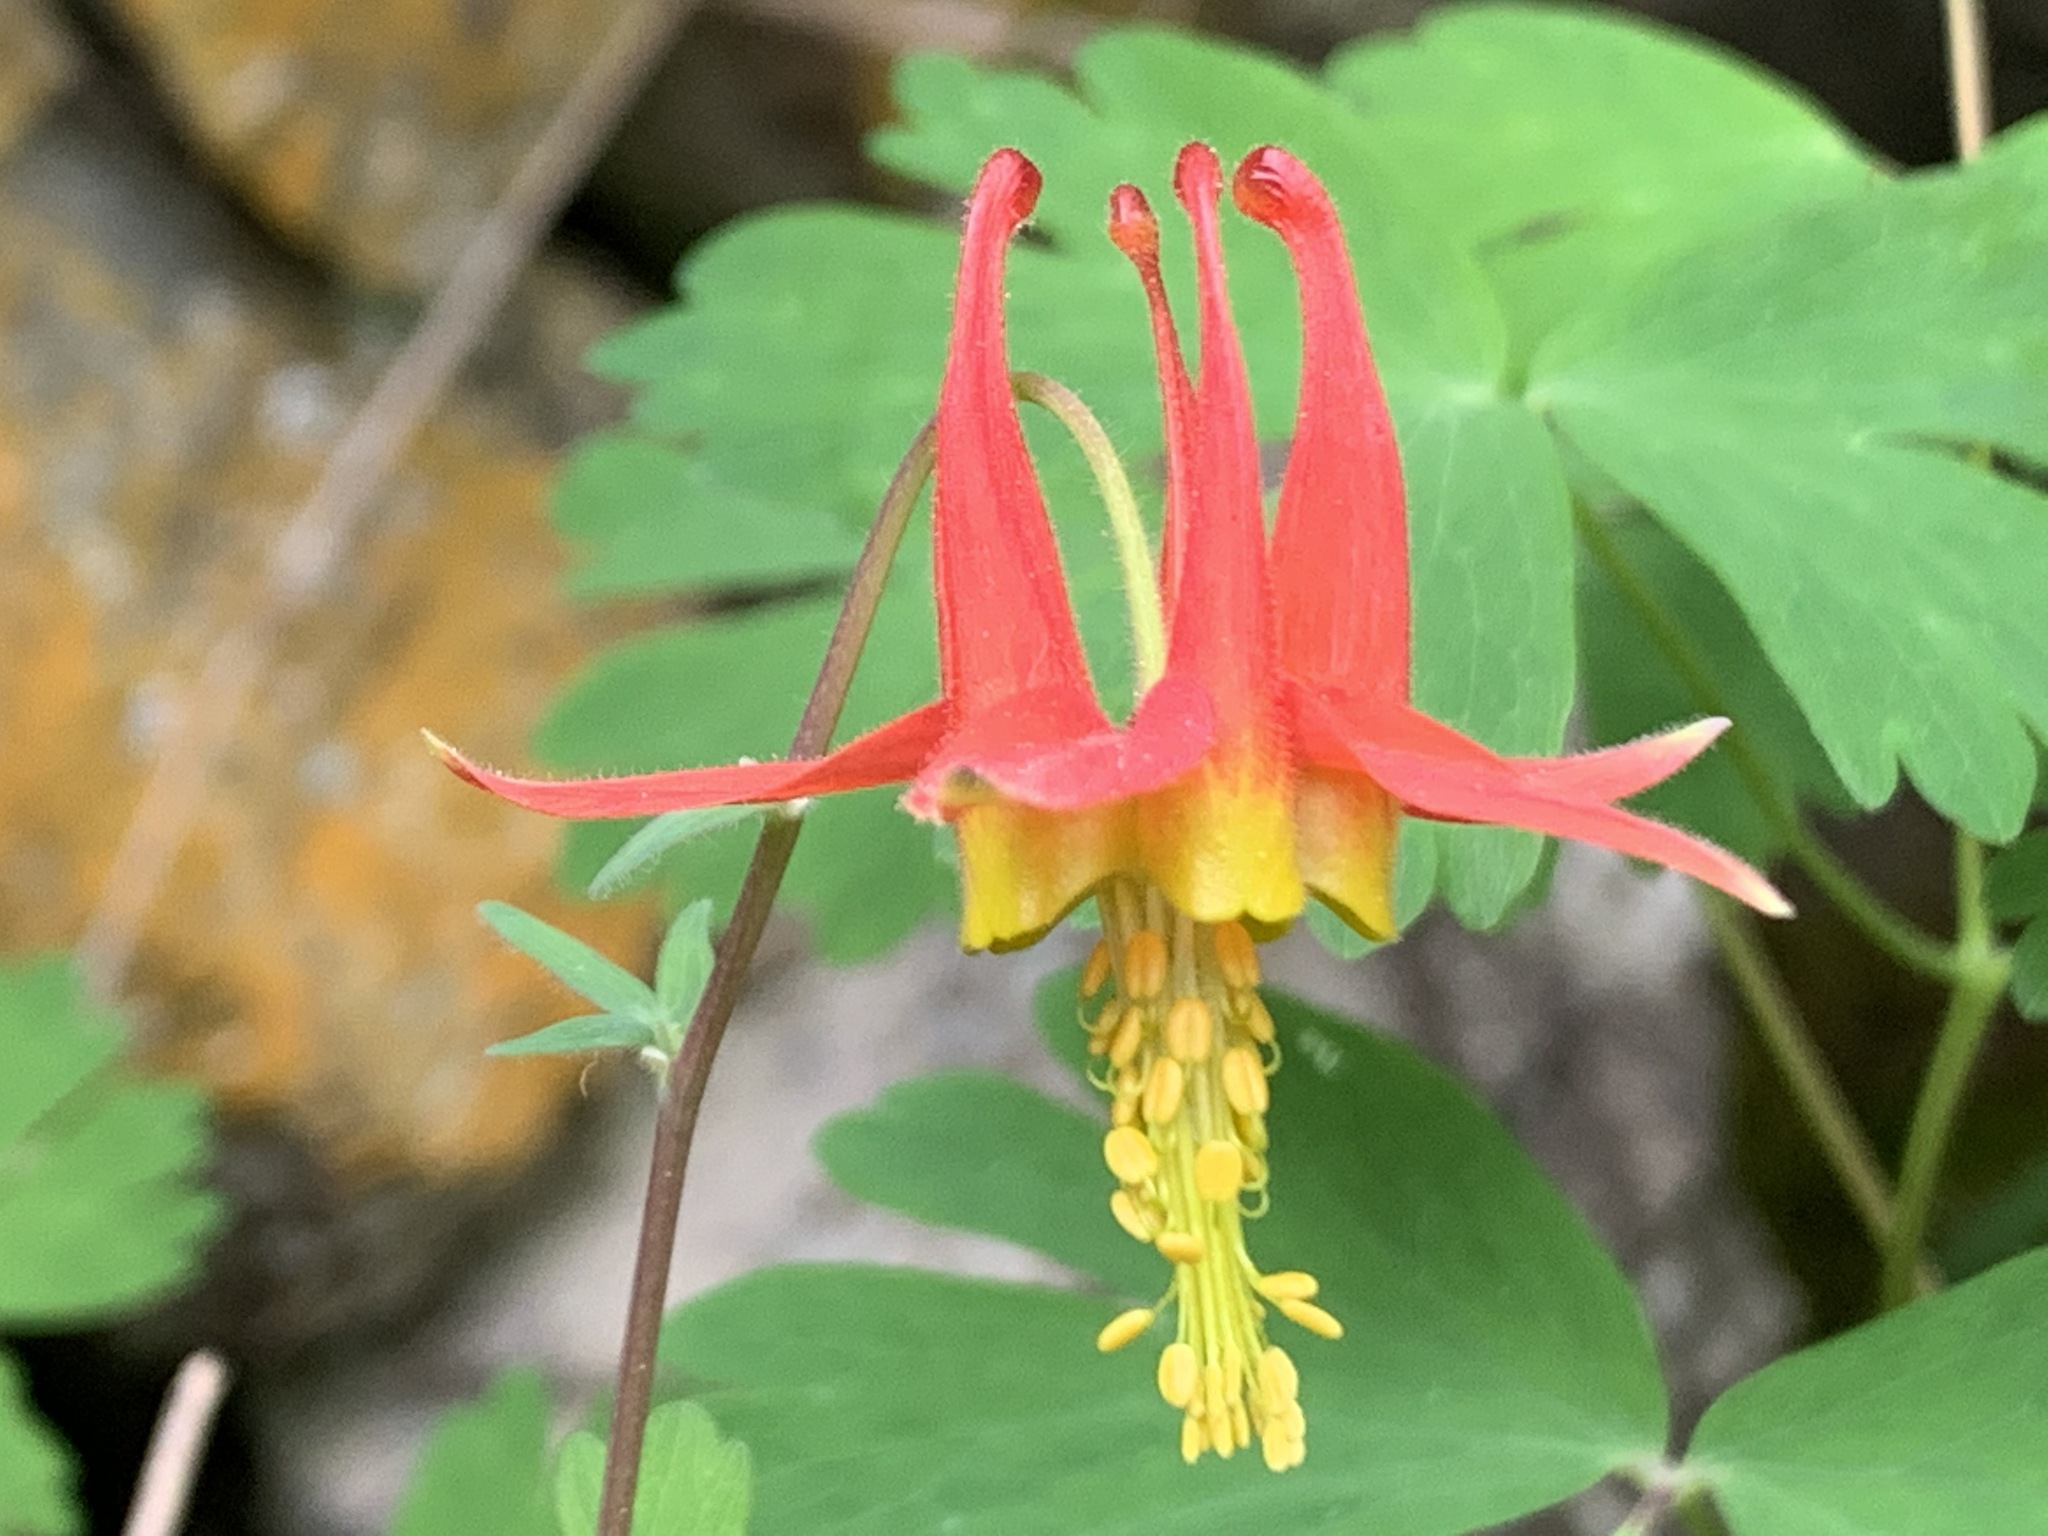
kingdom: Plantae
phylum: Tracheophyta
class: Magnoliopsida
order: Ranunculales
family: Ranunculaceae
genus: Aquilegia
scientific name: Aquilegia formosa
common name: Sitka columbine
